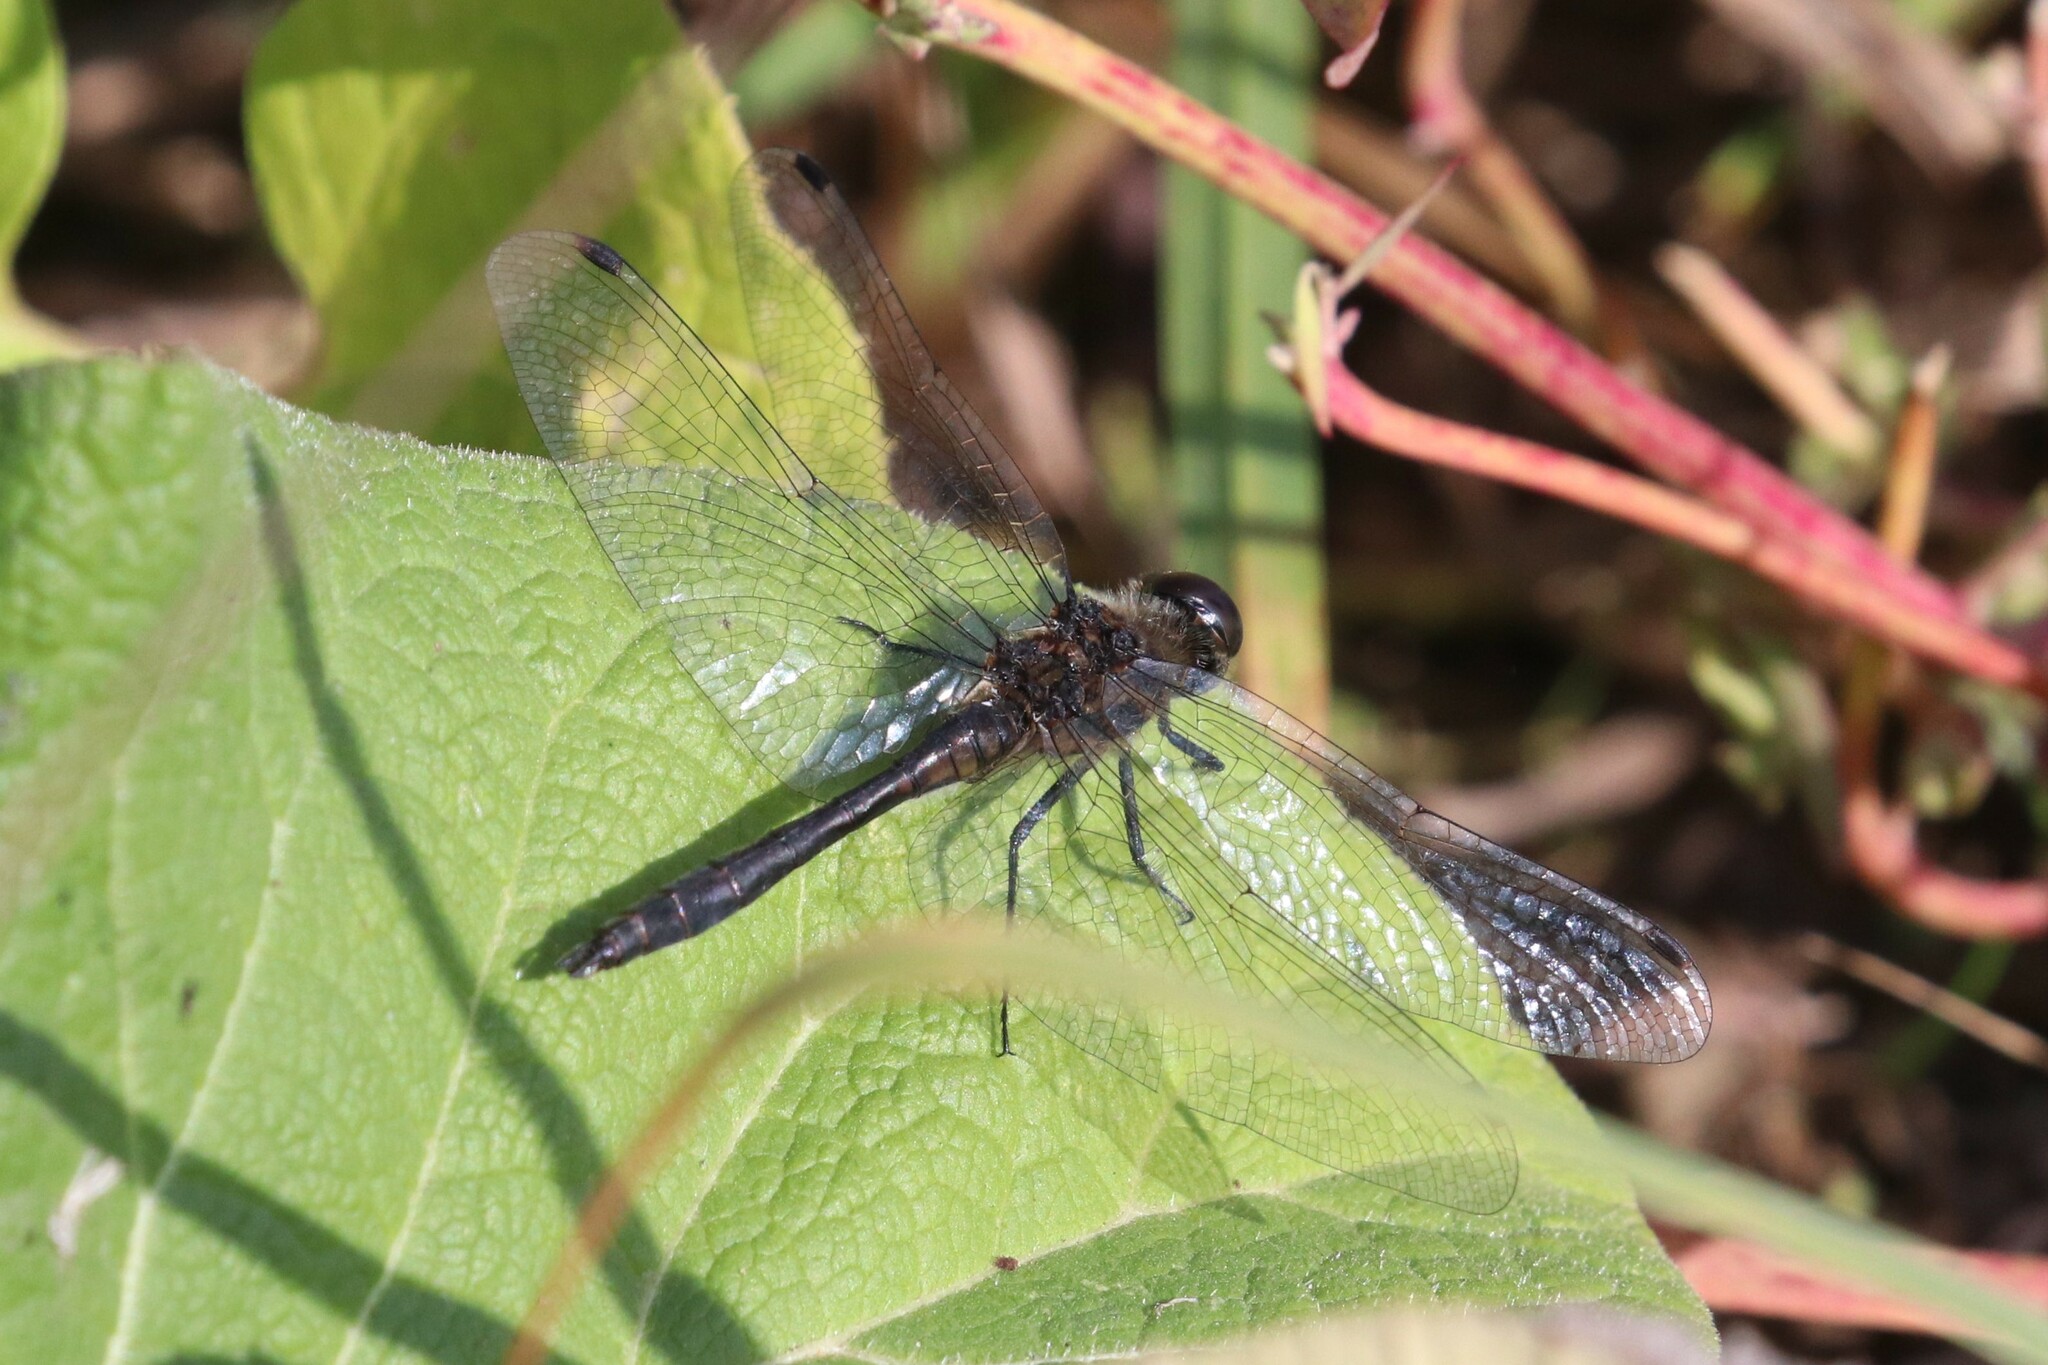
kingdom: Animalia
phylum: Arthropoda
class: Insecta
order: Odonata
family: Libellulidae
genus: Sympetrum
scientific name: Sympetrum danae
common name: Black darter
